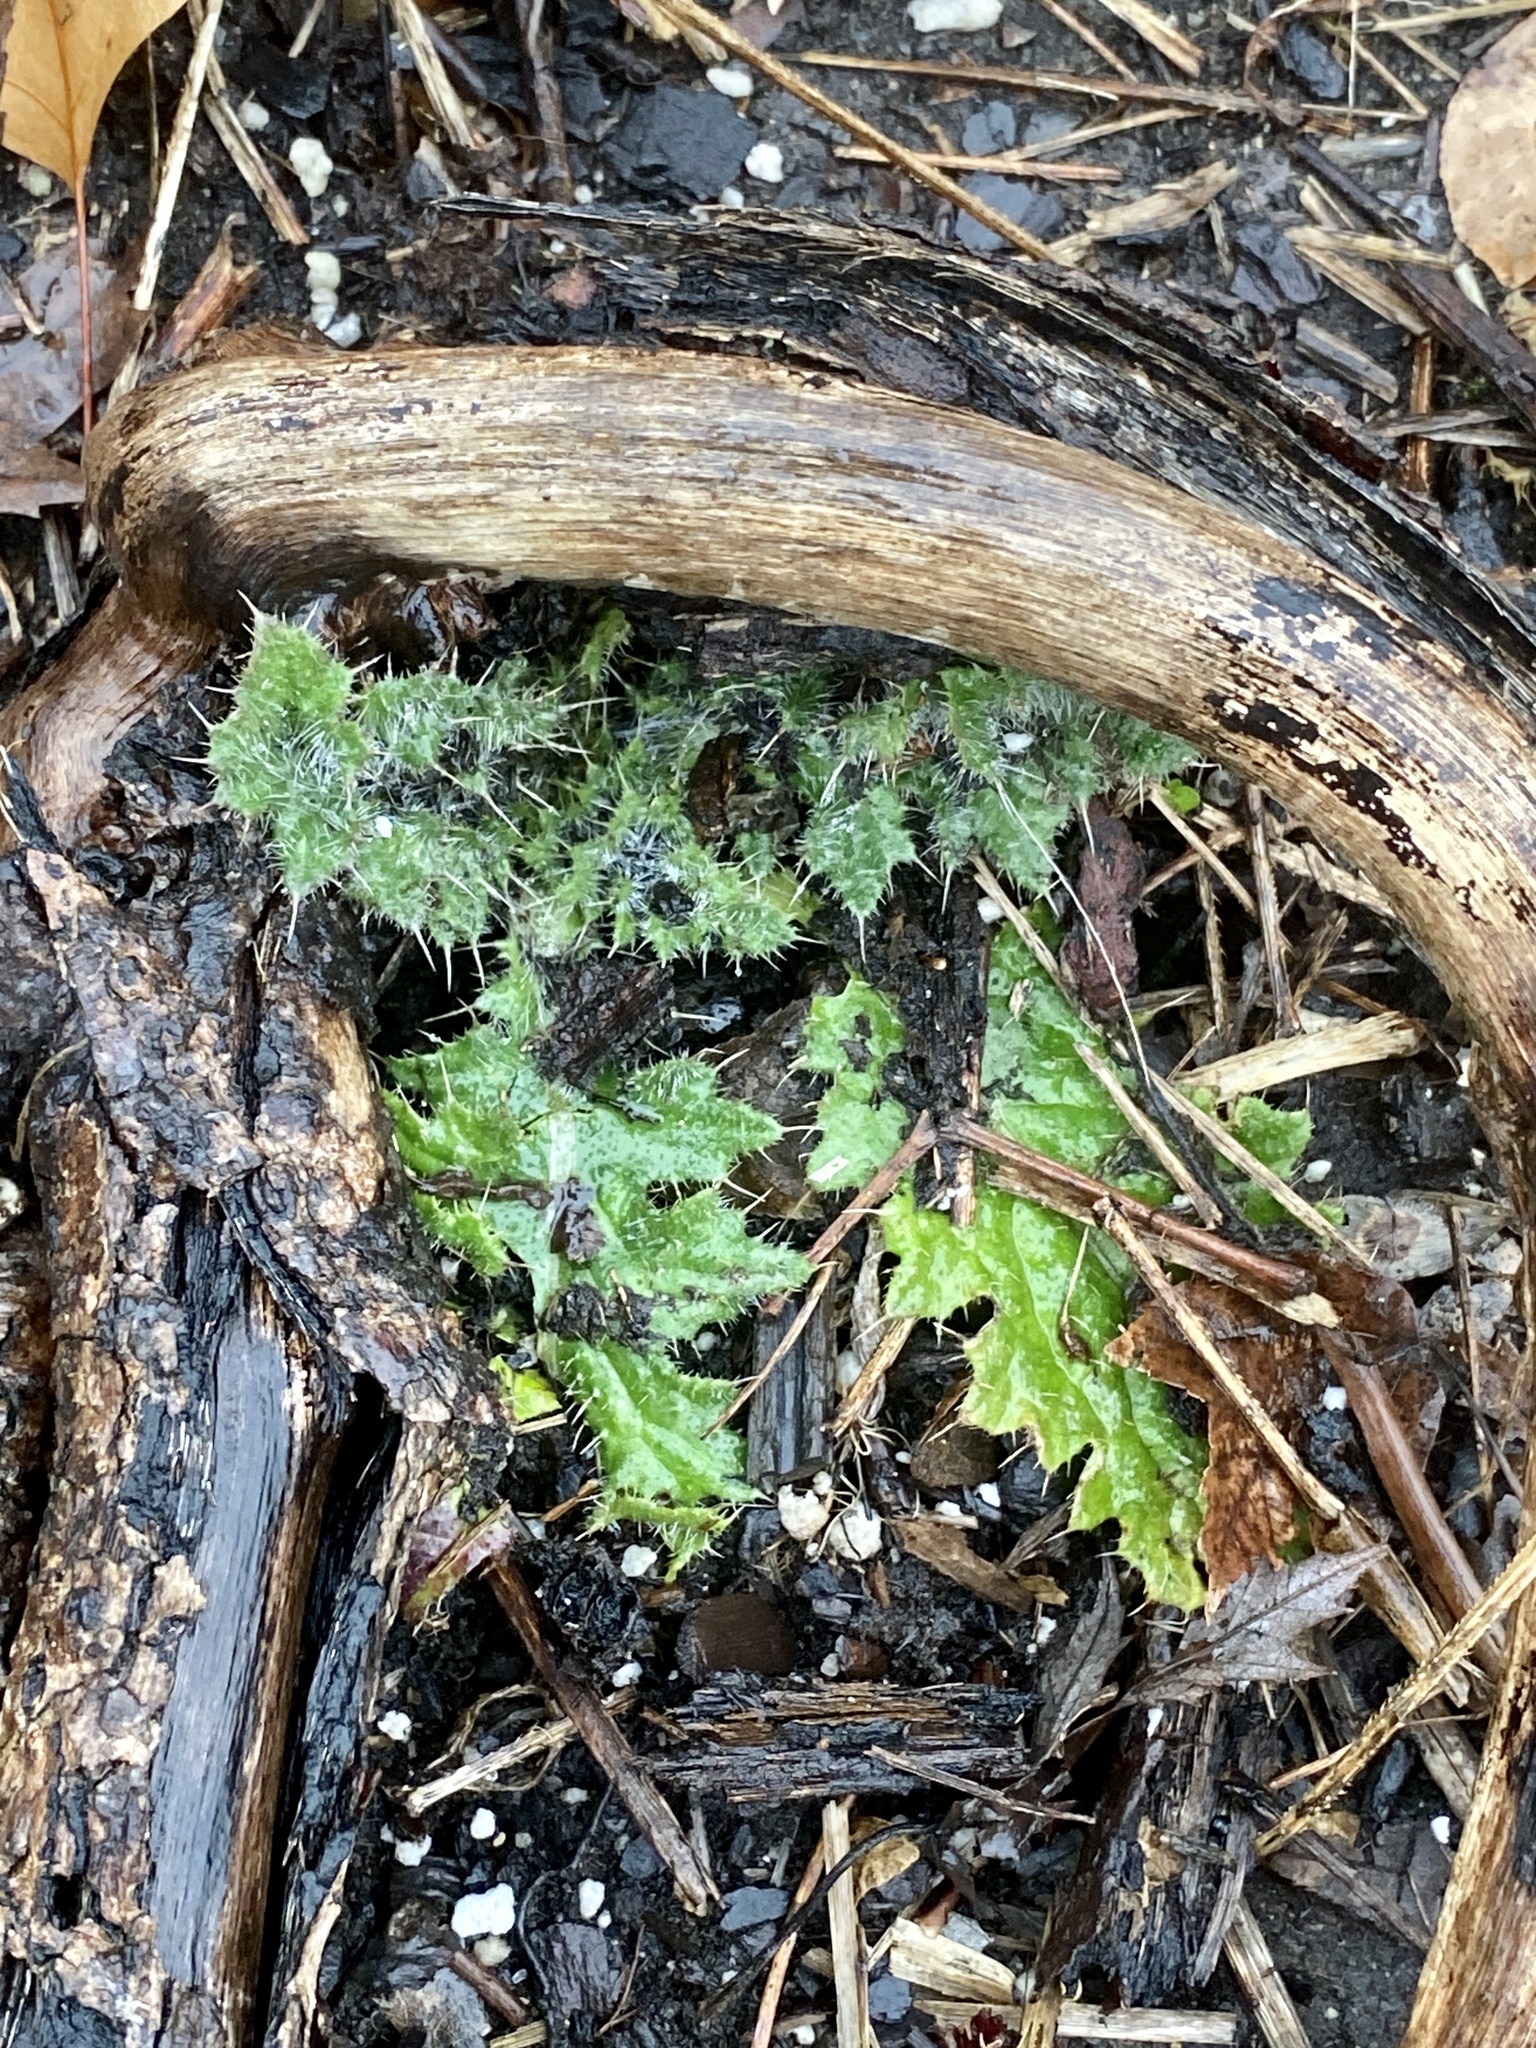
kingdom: Plantae
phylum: Tracheophyta
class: Magnoliopsida
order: Asterales
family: Asteraceae
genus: Cirsium
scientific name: Cirsium vulgare
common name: Bull thistle
